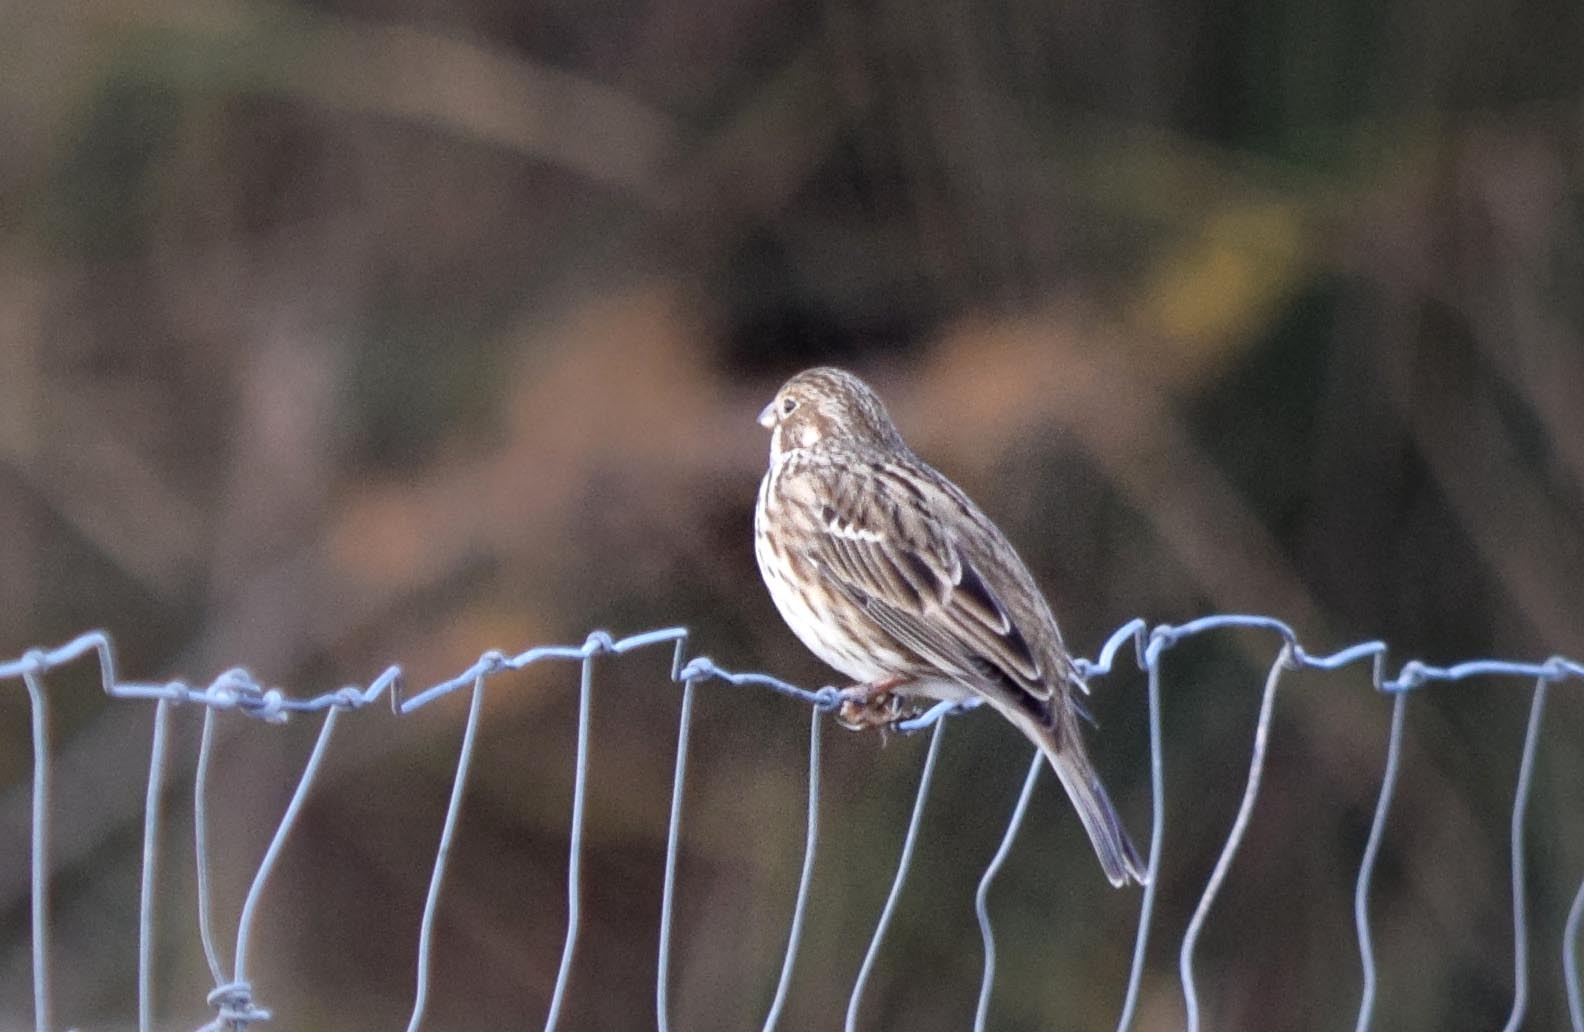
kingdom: Animalia
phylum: Chordata
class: Aves
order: Passeriformes
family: Emberizidae
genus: Emberiza
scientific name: Emberiza cirlus
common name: Cirl bunting
